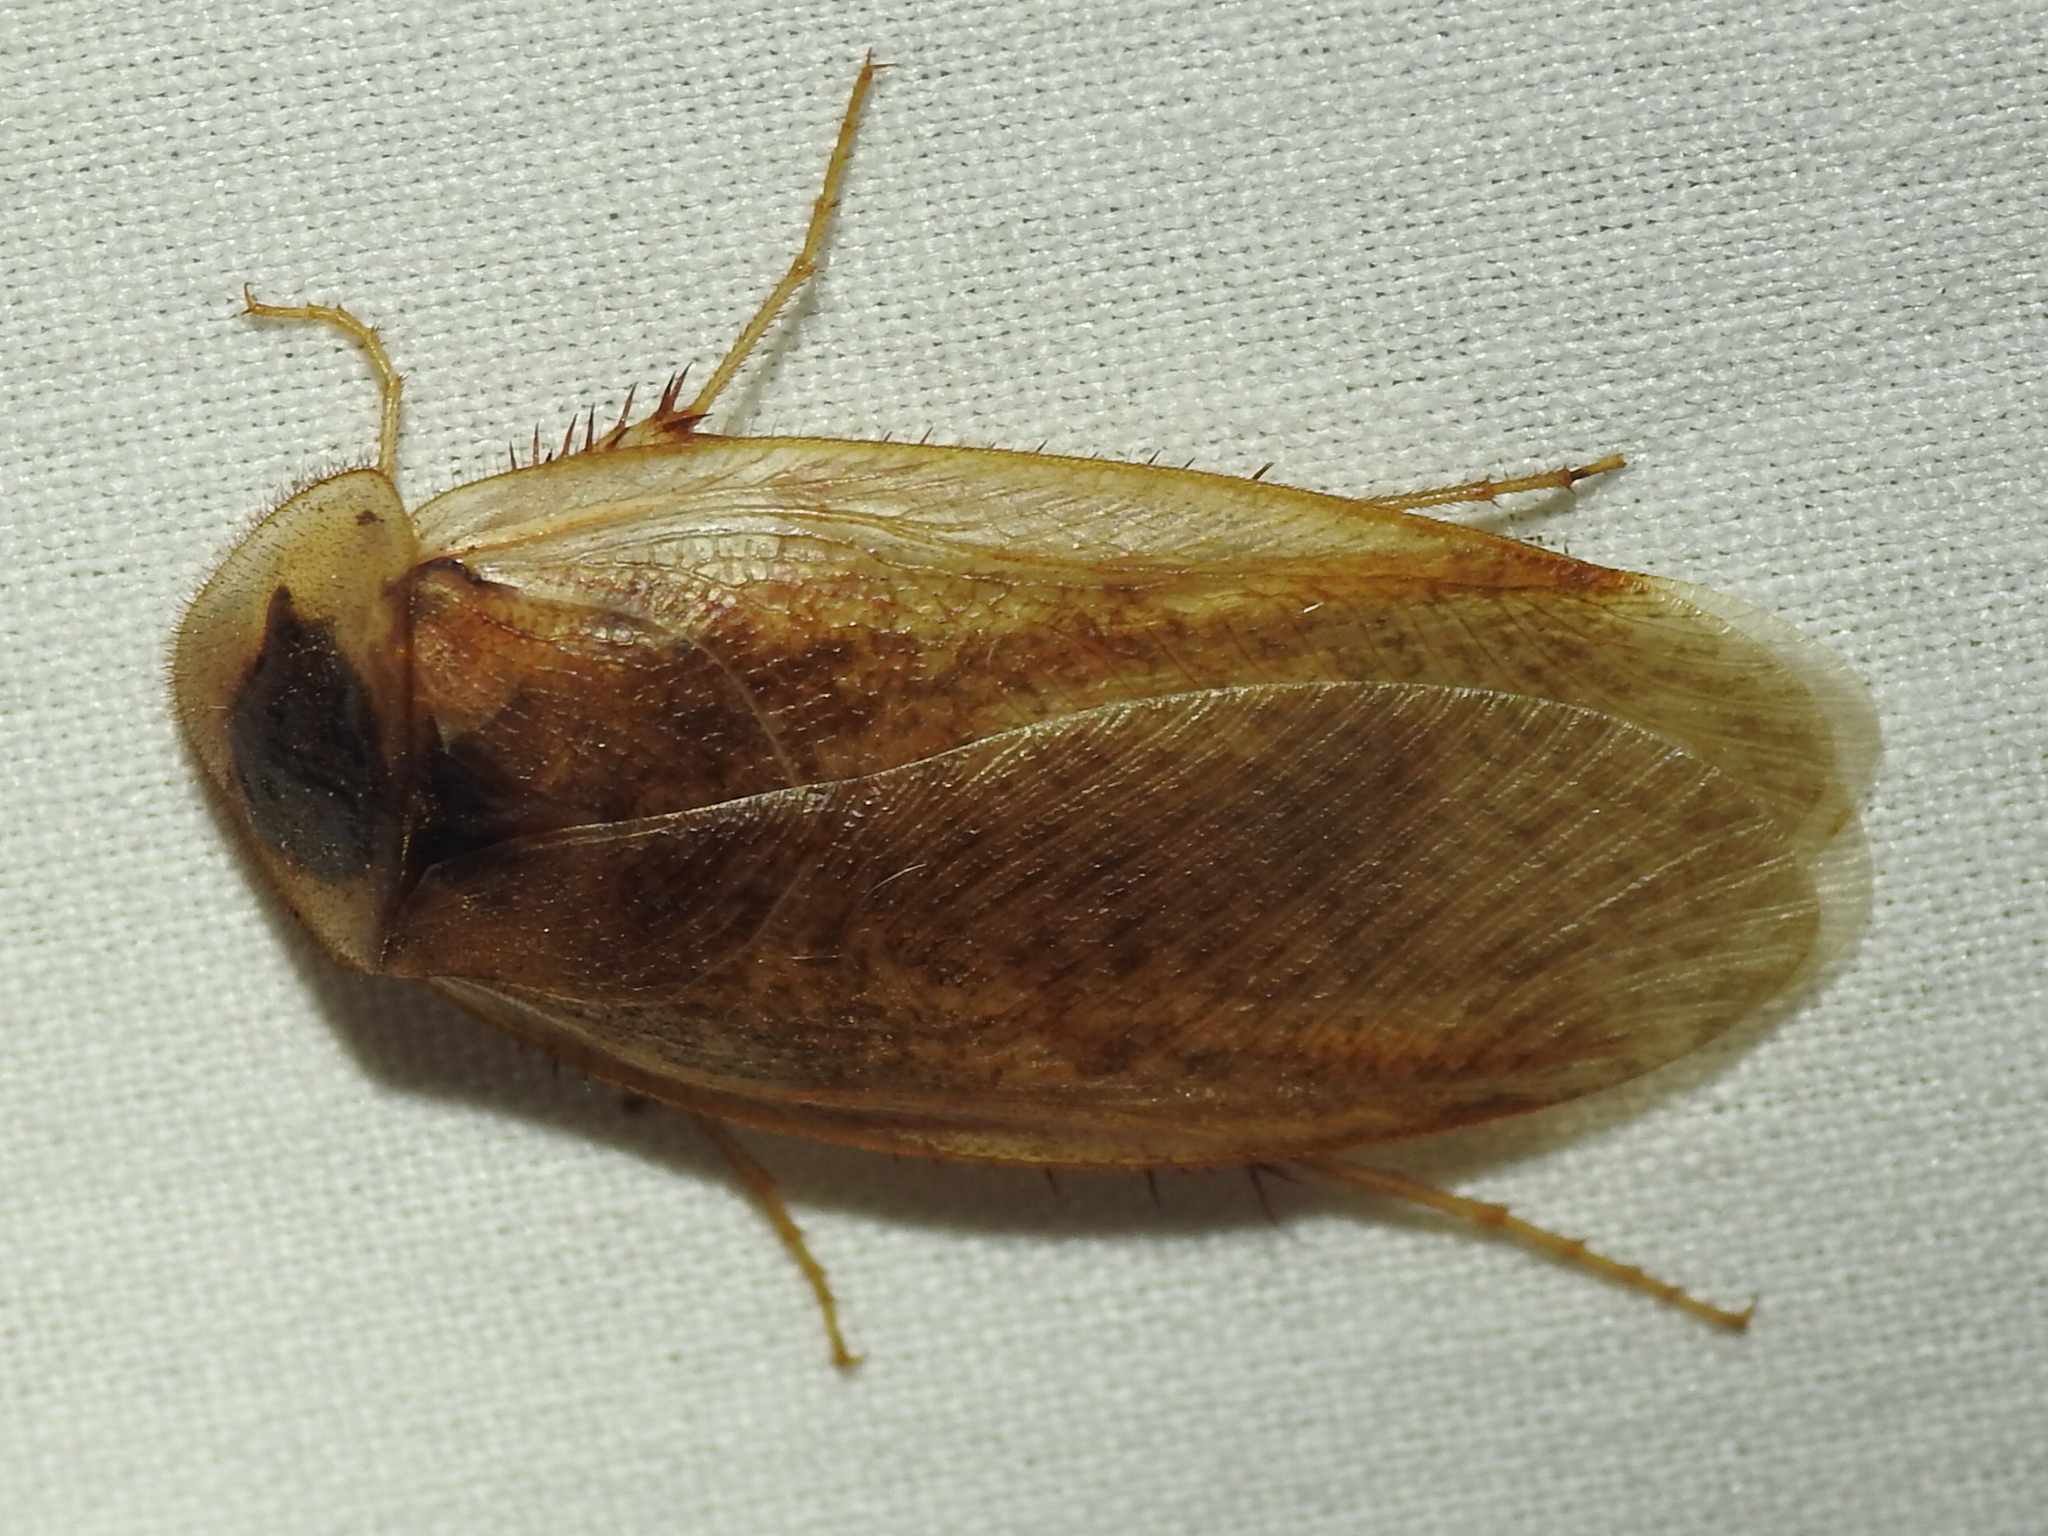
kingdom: Animalia
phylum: Arthropoda
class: Insecta
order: Blattodea
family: Corydiidae
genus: Arenivaga
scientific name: Arenivaga bolliana
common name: Boll's sand cockroach
